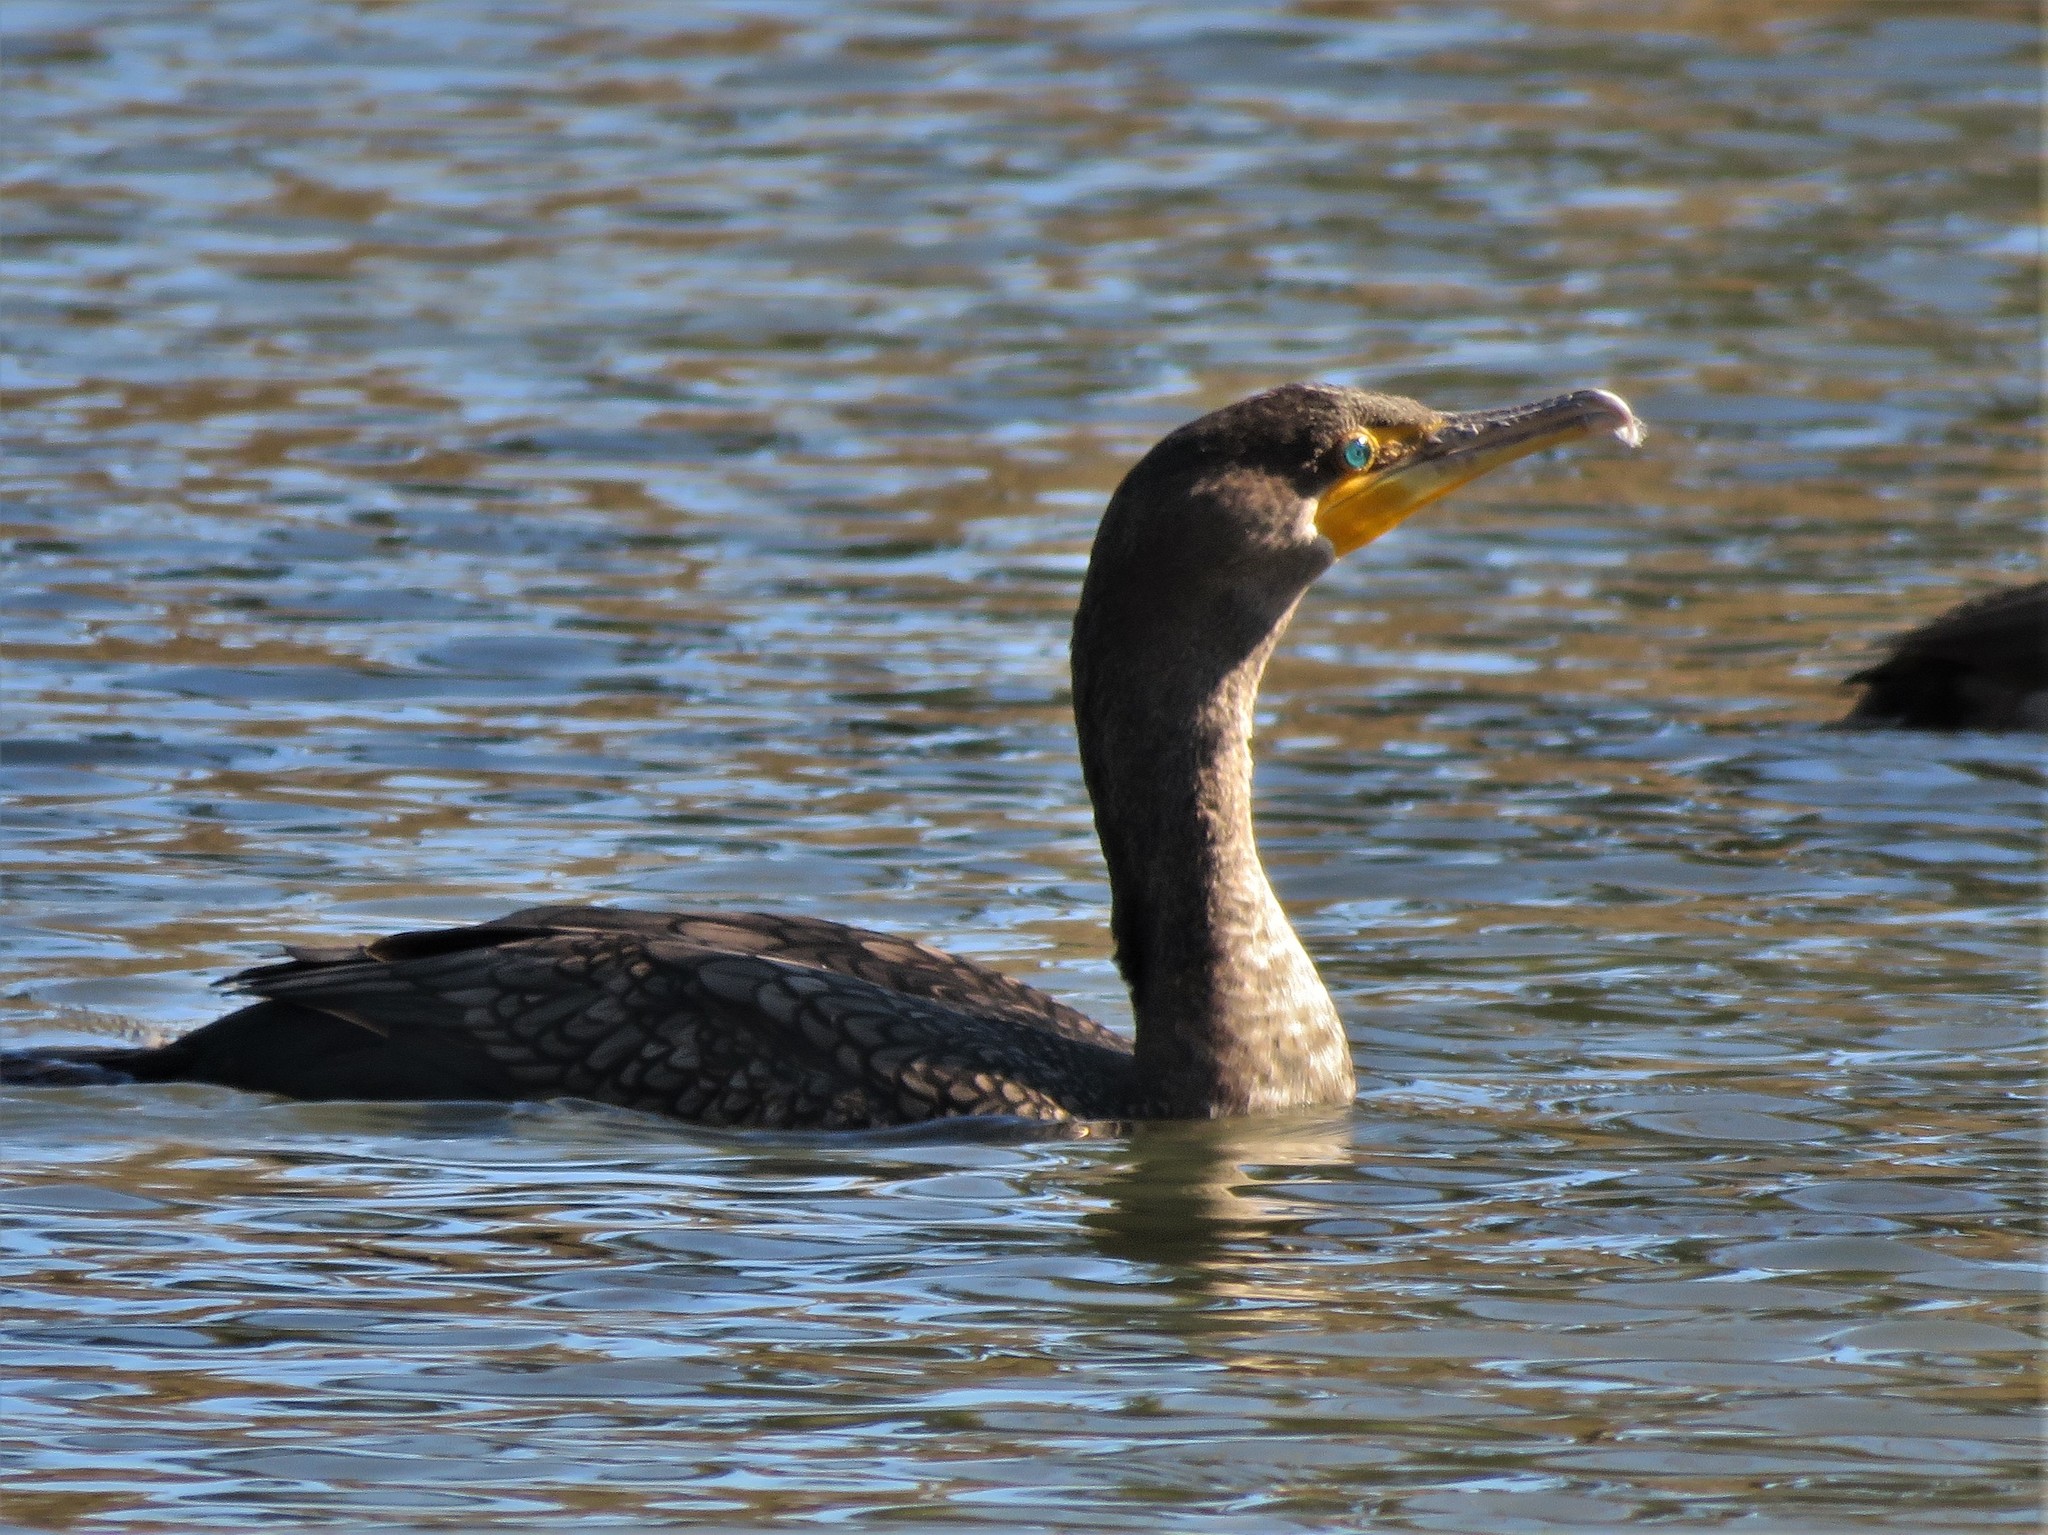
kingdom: Animalia
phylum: Chordata
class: Aves
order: Suliformes
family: Phalacrocoracidae
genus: Phalacrocorax
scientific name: Phalacrocorax auritus
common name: Double-crested cormorant
